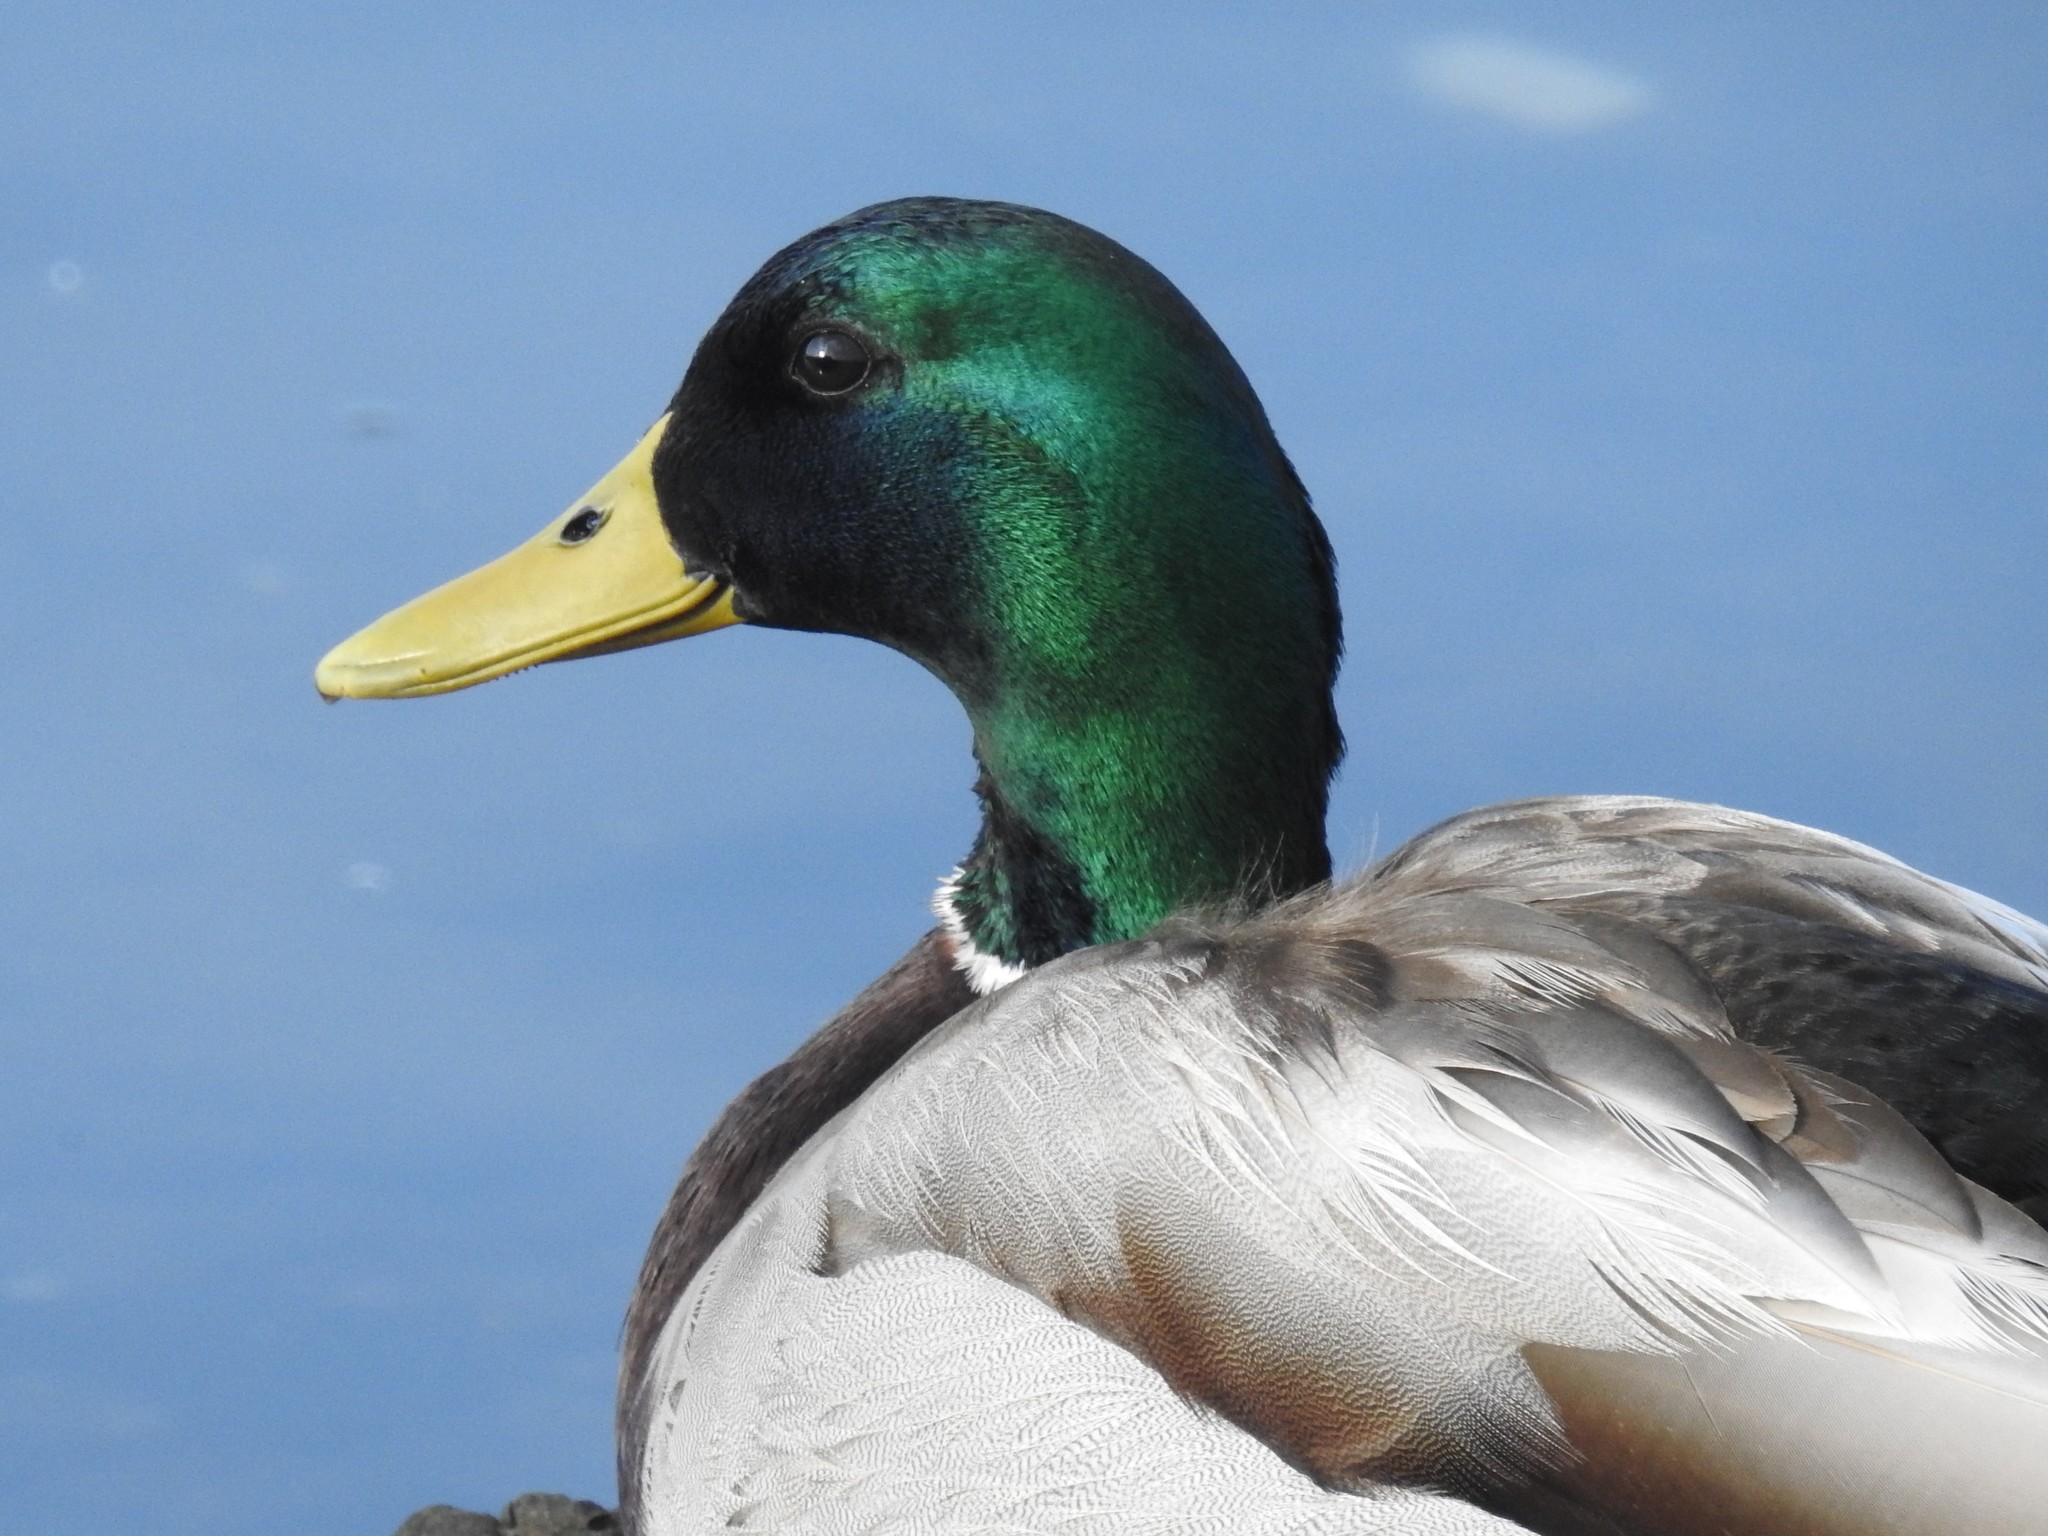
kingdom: Animalia
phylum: Chordata
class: Aves
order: Anseriformes
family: Anatidae
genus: Anas
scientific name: Anas platyrhynchos
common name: Mallard
